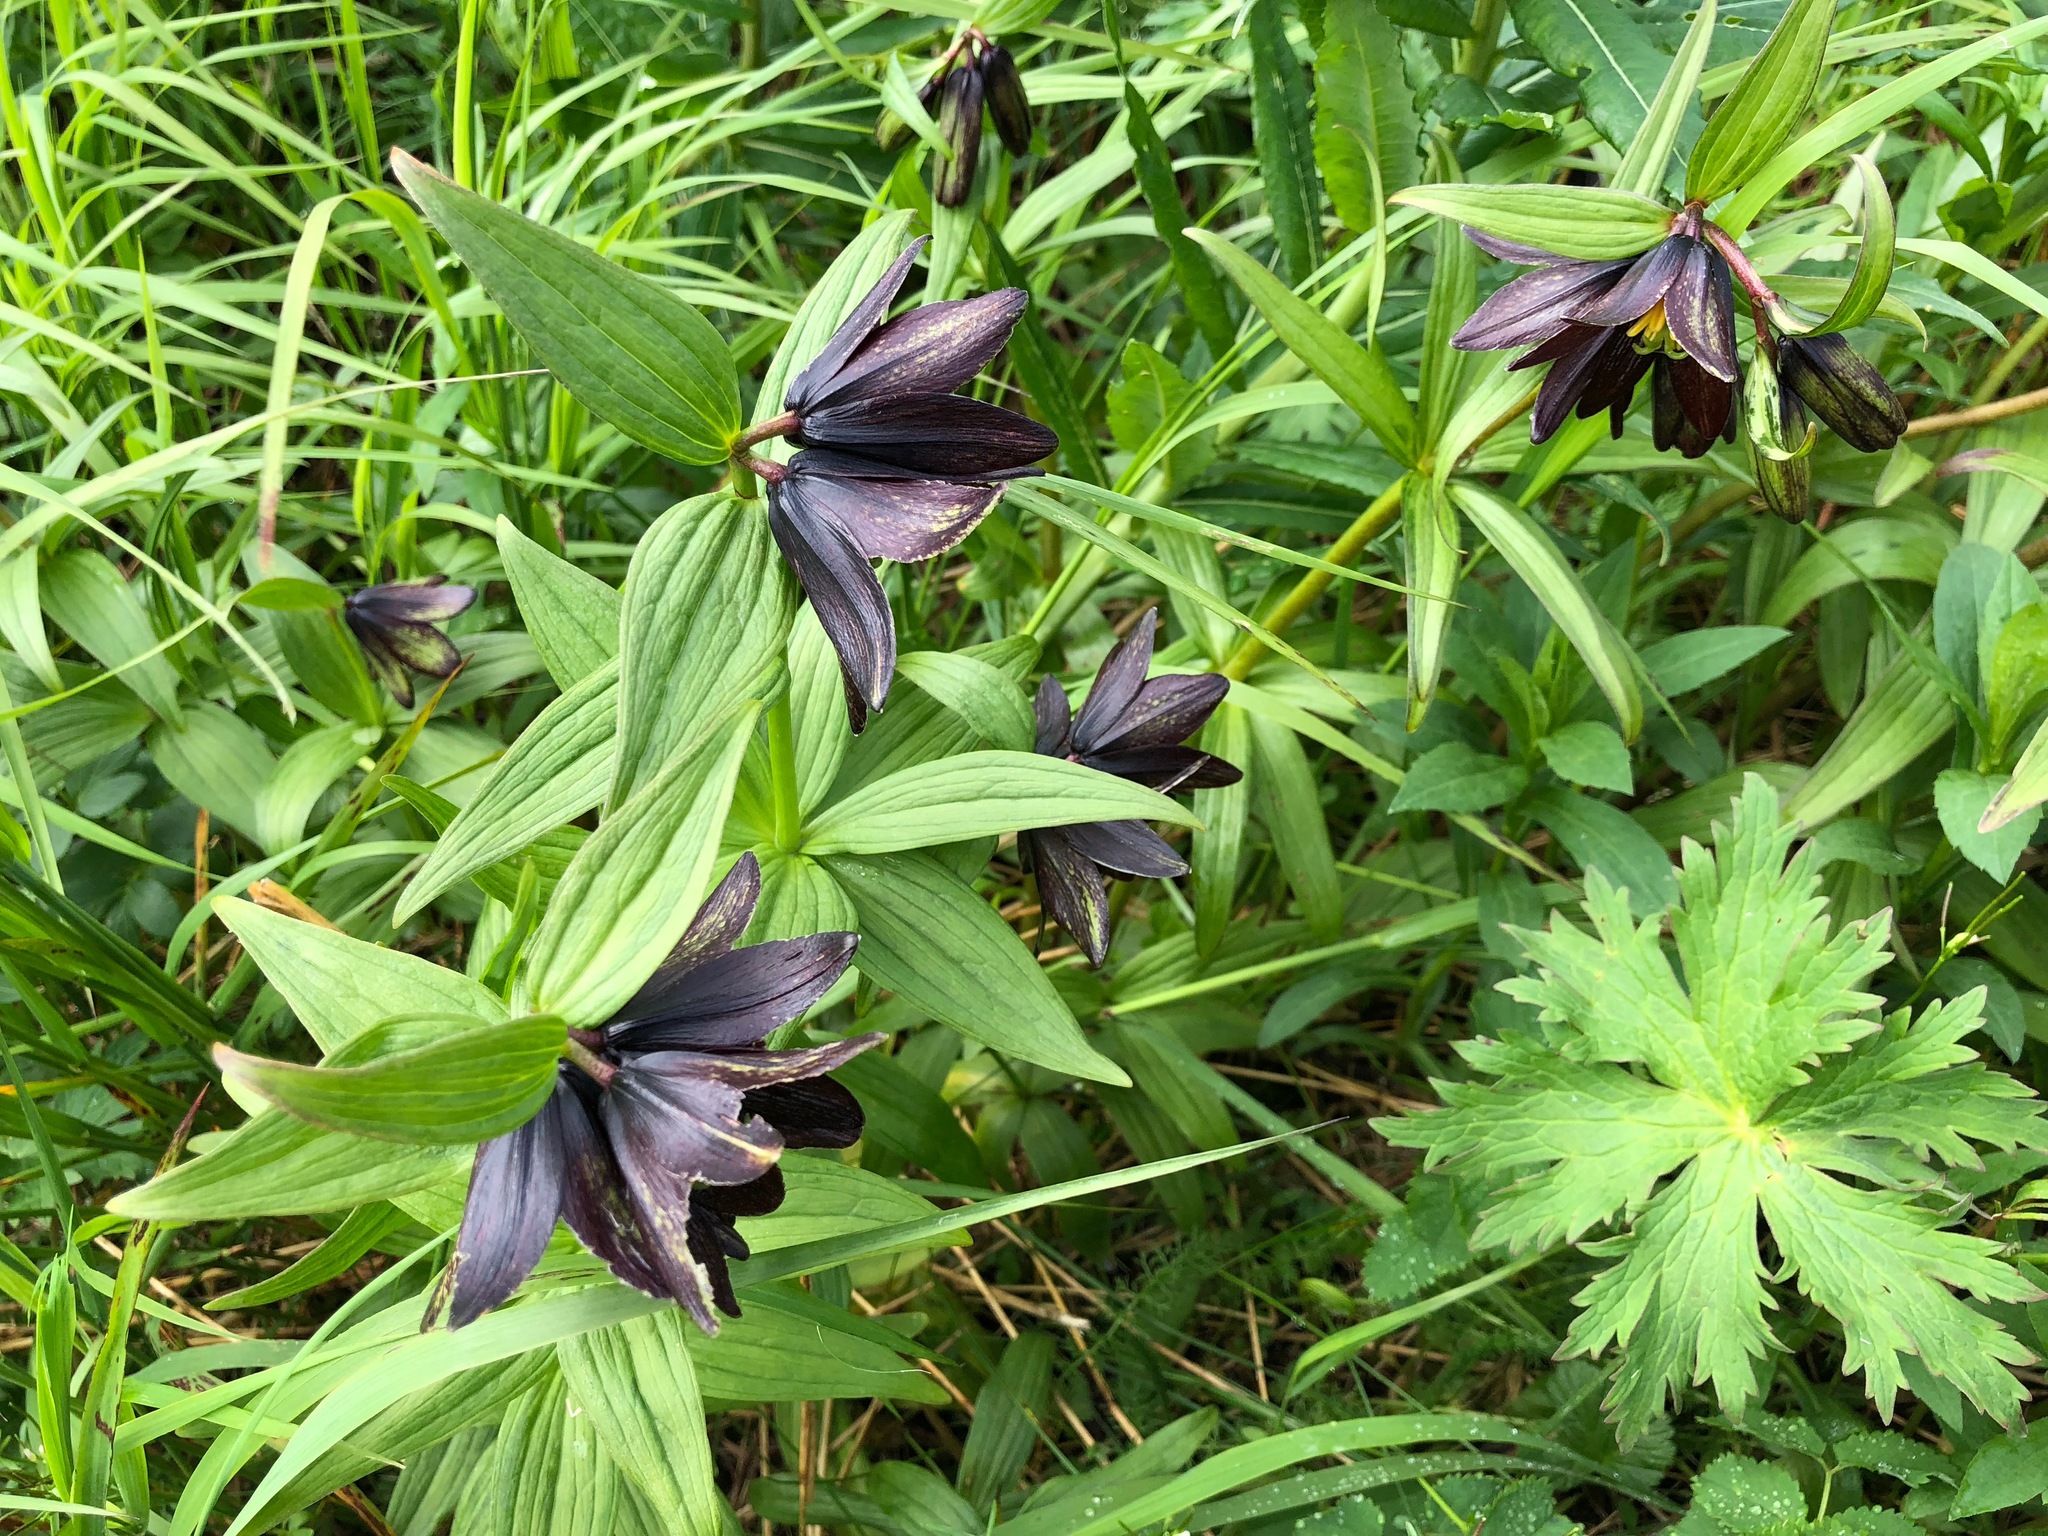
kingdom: Plantae
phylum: Tracheophyta
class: Liliopsida
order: Liliales
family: Liliaceae
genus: Fritillaria
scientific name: Fritillaria camschatcensis
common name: Kamchatka fritillary
